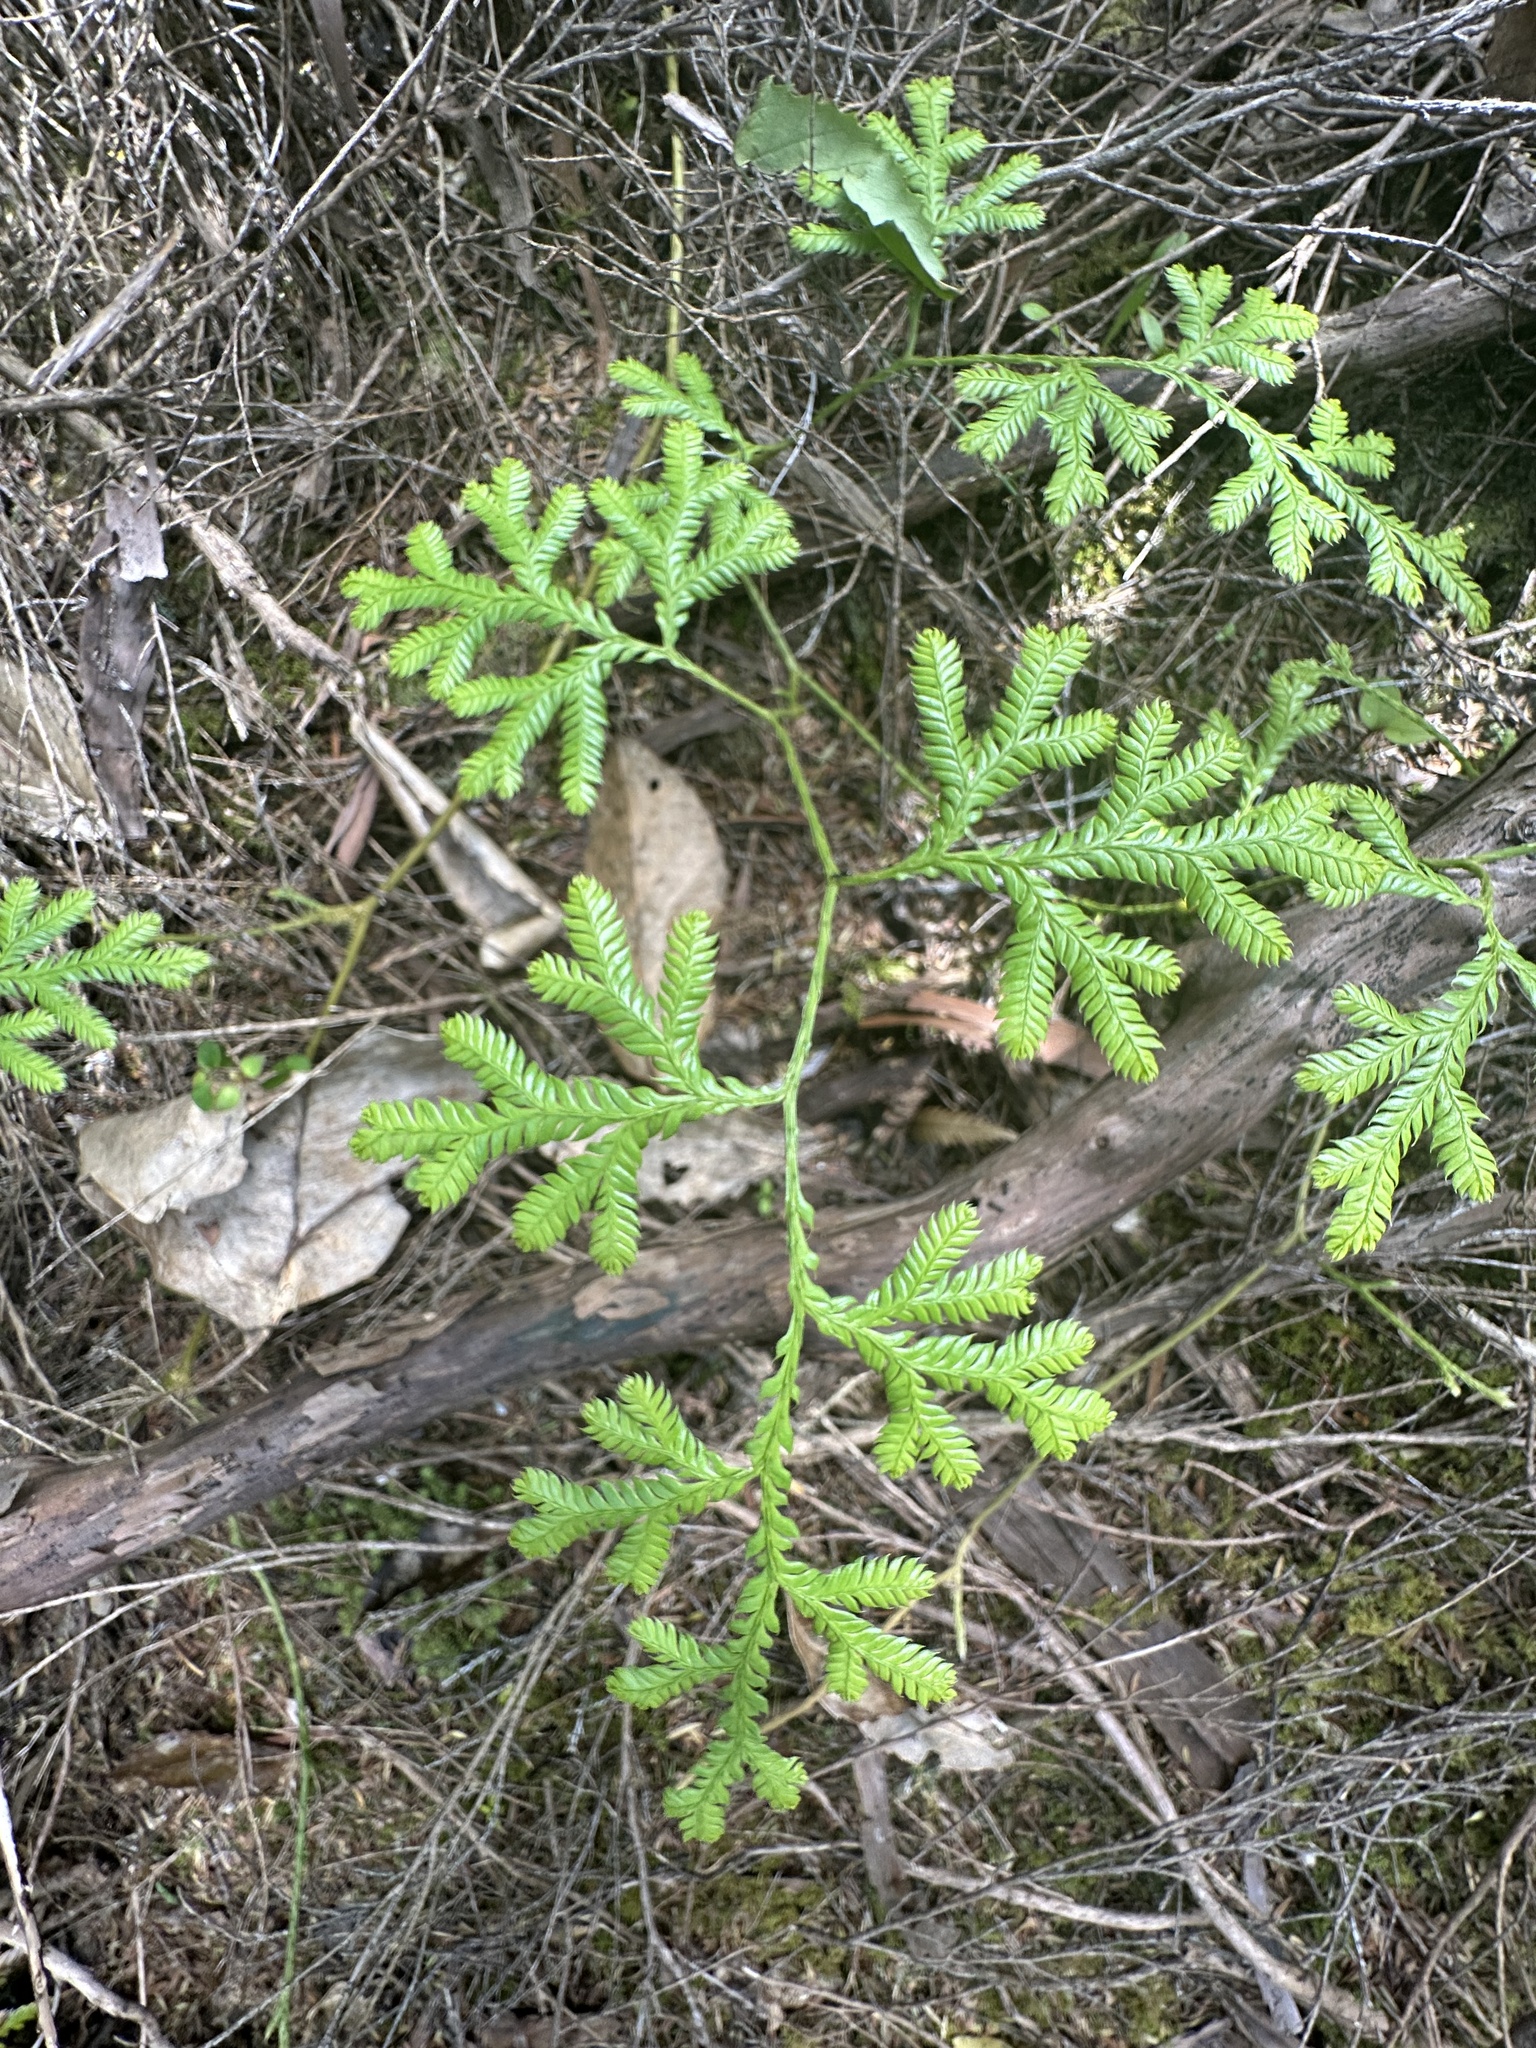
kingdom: Plantae
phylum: Tracheophyta
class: Lycopodiopsida
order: Lycopodiales
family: Lycopodiaceae
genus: Lycopodium
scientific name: Lycopodium volubile
